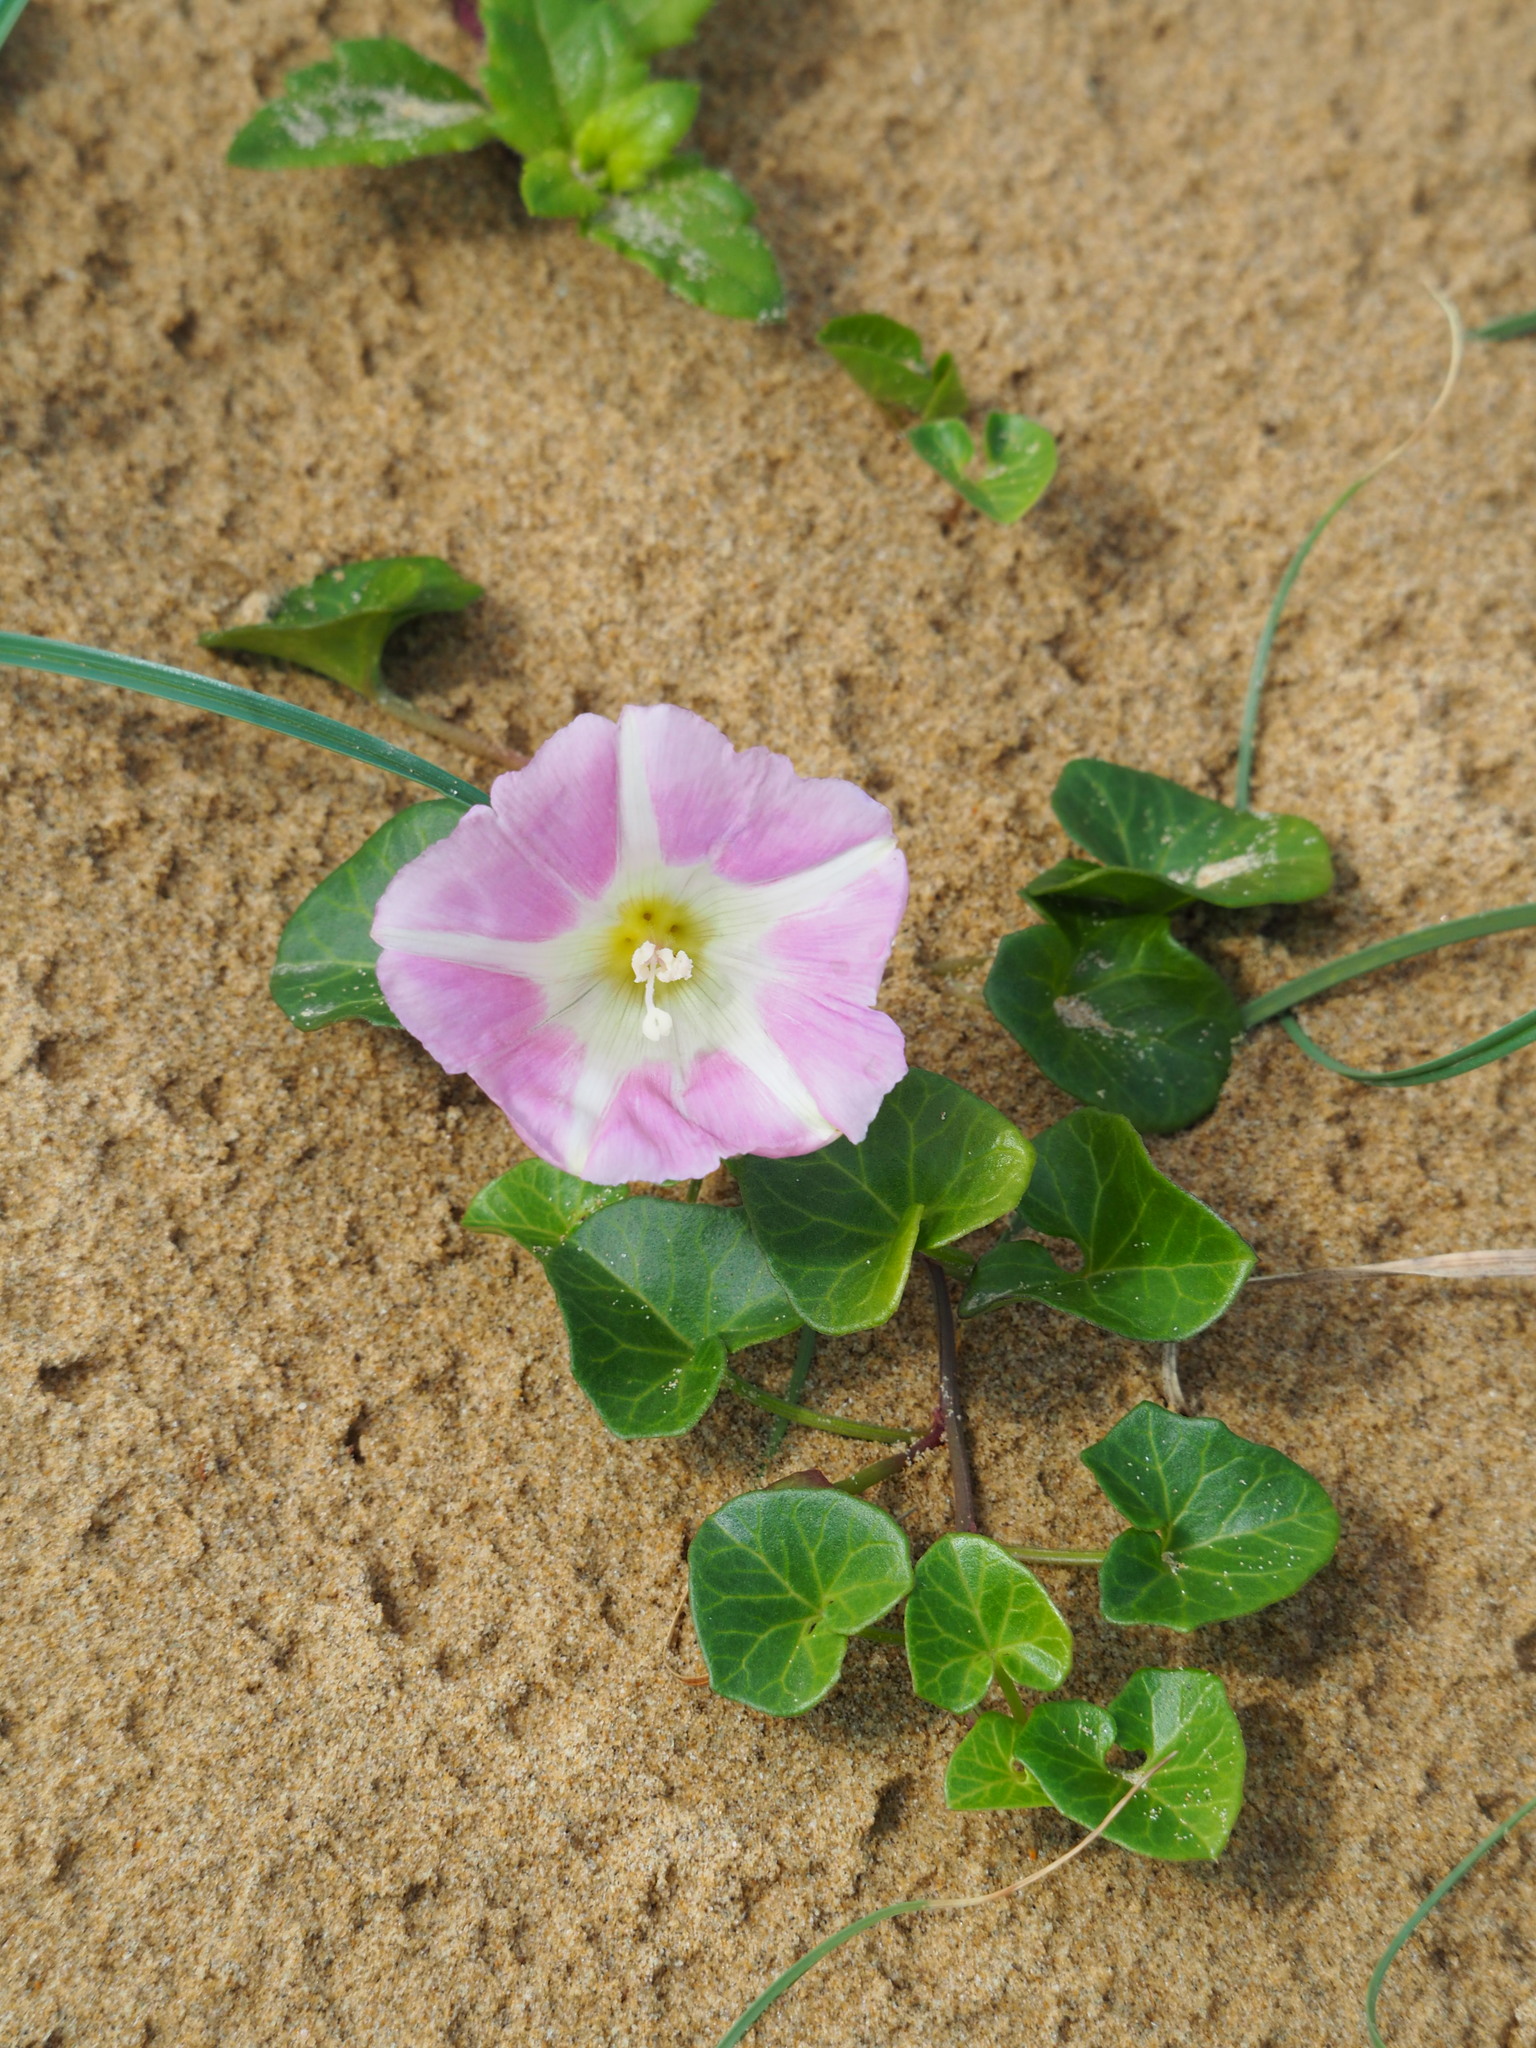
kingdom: Plantae
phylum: Tracheophyta
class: Magnoliopsida
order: Solanales
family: Convolvulaceae
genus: Calystegia
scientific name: Calystegia soldanella
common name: Sea bindweed
